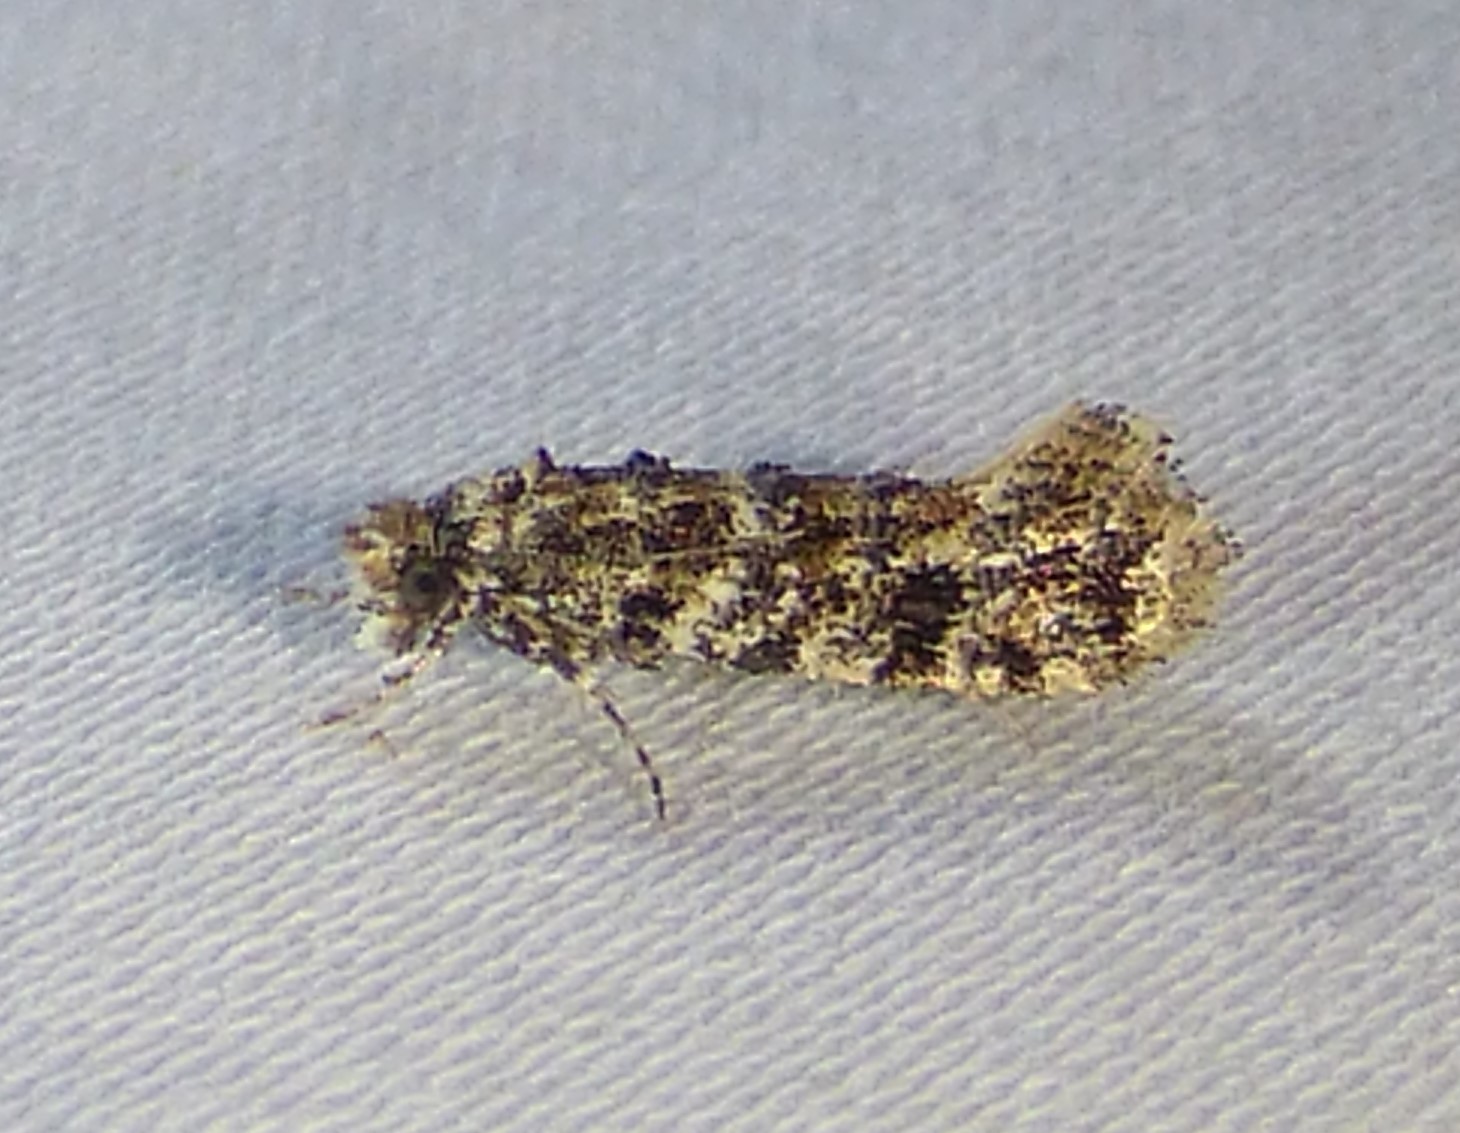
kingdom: Animalia
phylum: Arthropoda
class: Insecta
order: Lepidoptera
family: Tineidae
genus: Xylesthia
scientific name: Xylesthia pruniramiella
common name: Clemens' bark moth
